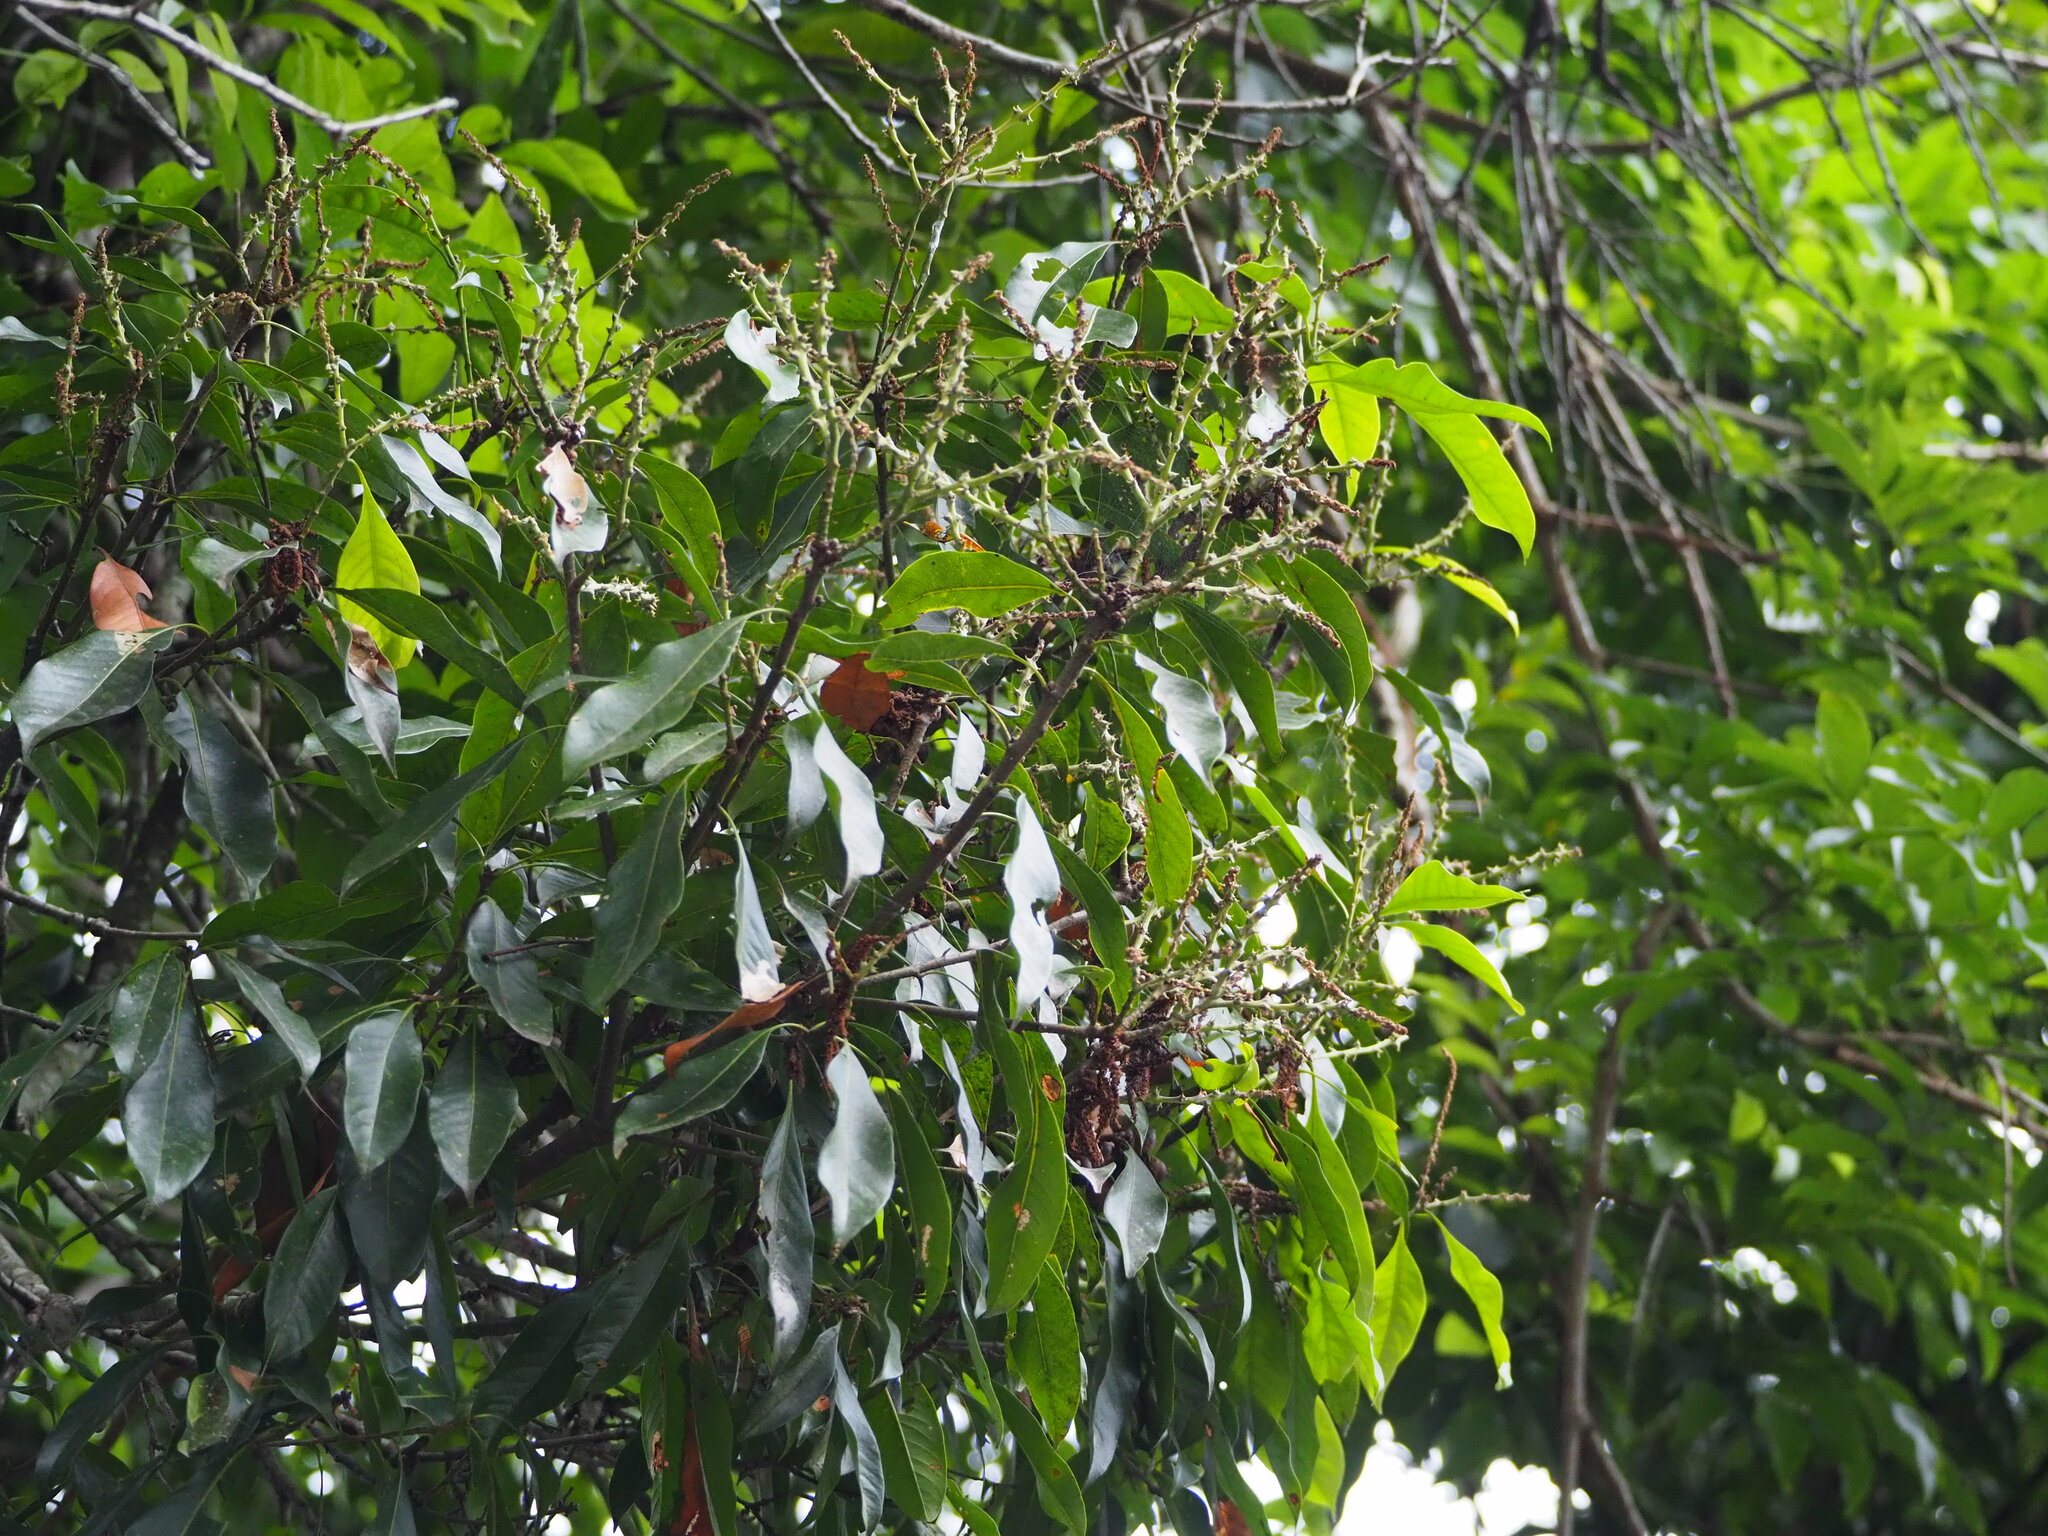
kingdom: Plantae
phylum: Tracheophyta
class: Magnoliopsida
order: Fagales
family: Fagaceae
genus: Lithocarpus
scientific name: Lithocarpus hancei
